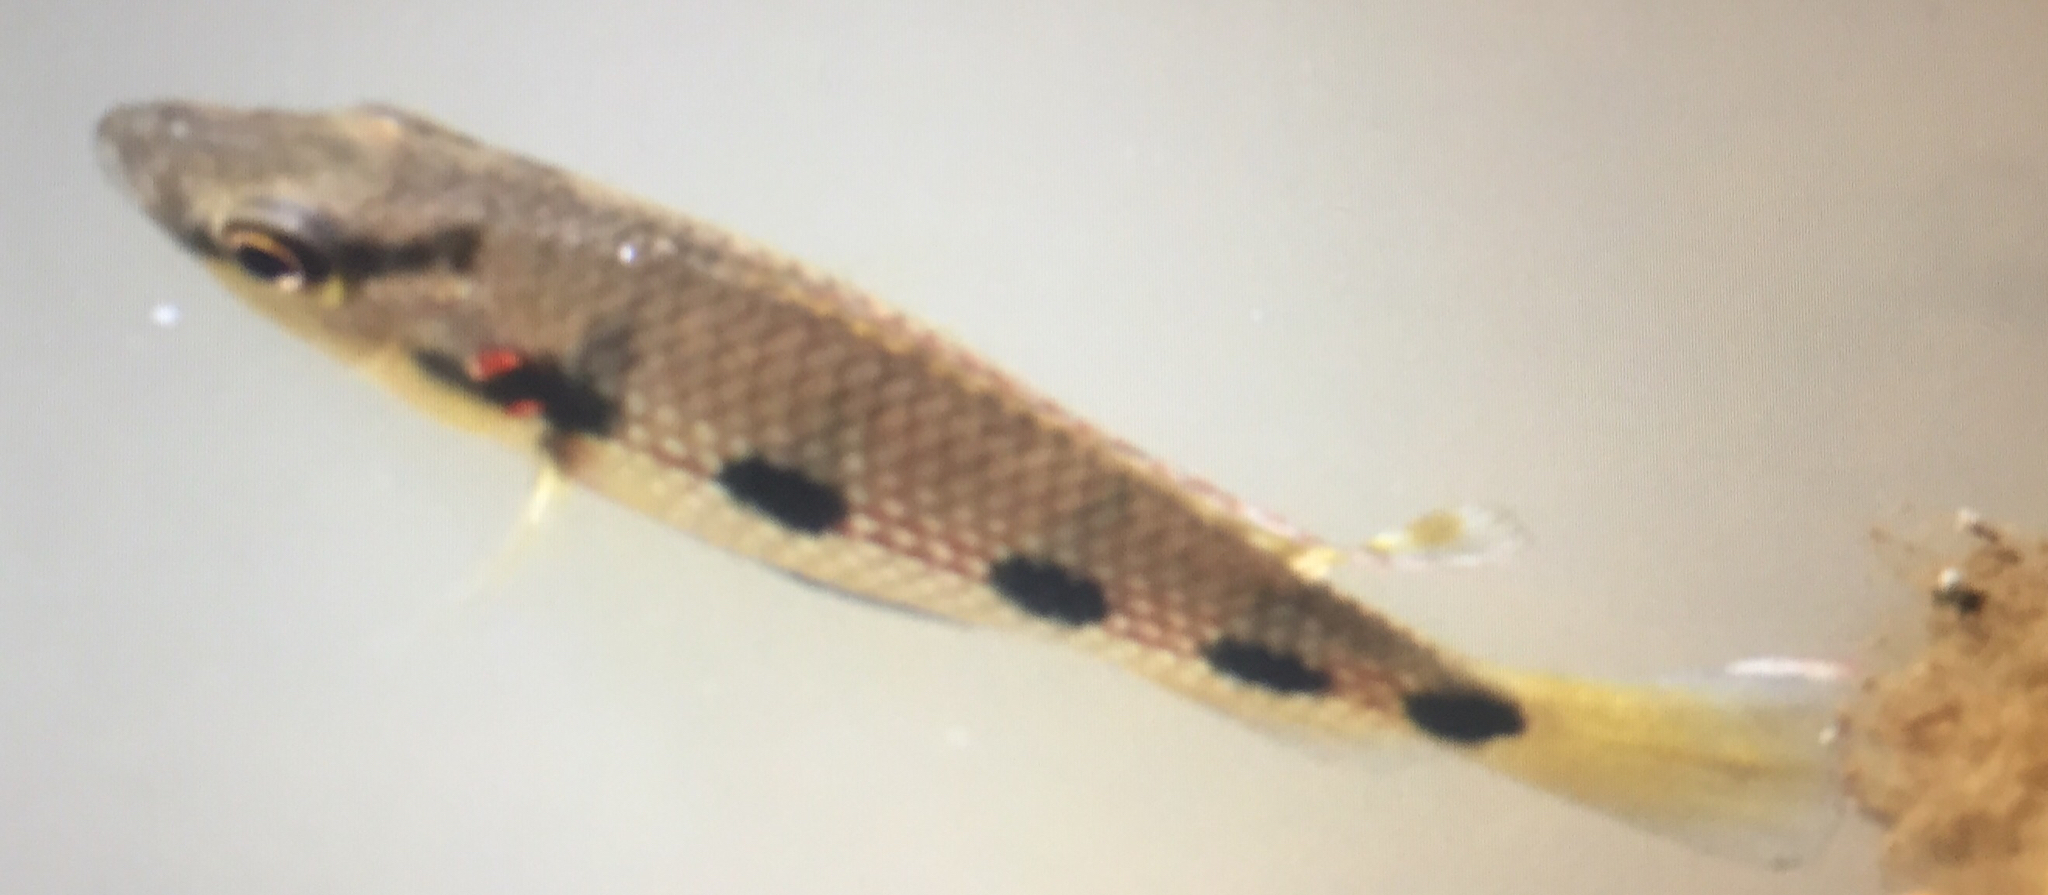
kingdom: Animalia
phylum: Chordata
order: Perciformes
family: Cichlidae
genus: Hemichromis
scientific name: Hemichromis elongatus
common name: Jewel cichlid
